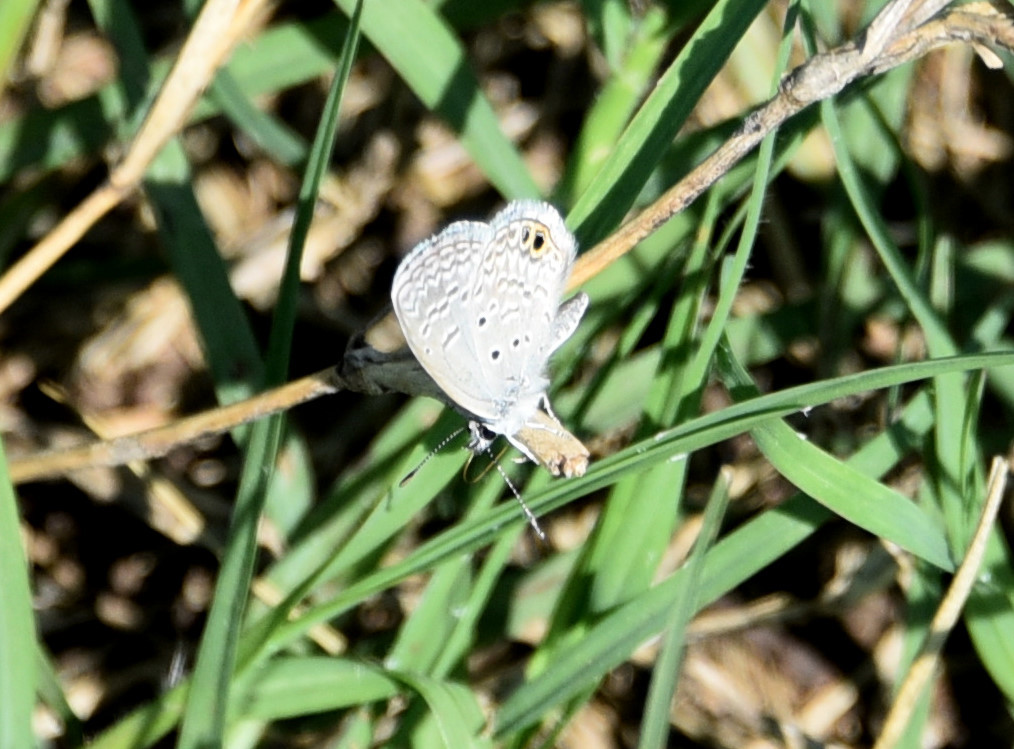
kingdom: Animalia
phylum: Arthropoda
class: Insecta
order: Lepidoptera
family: Lycaenidae
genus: Hemiargus
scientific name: Hemiargus ceraunus
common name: Ceraunus blue
